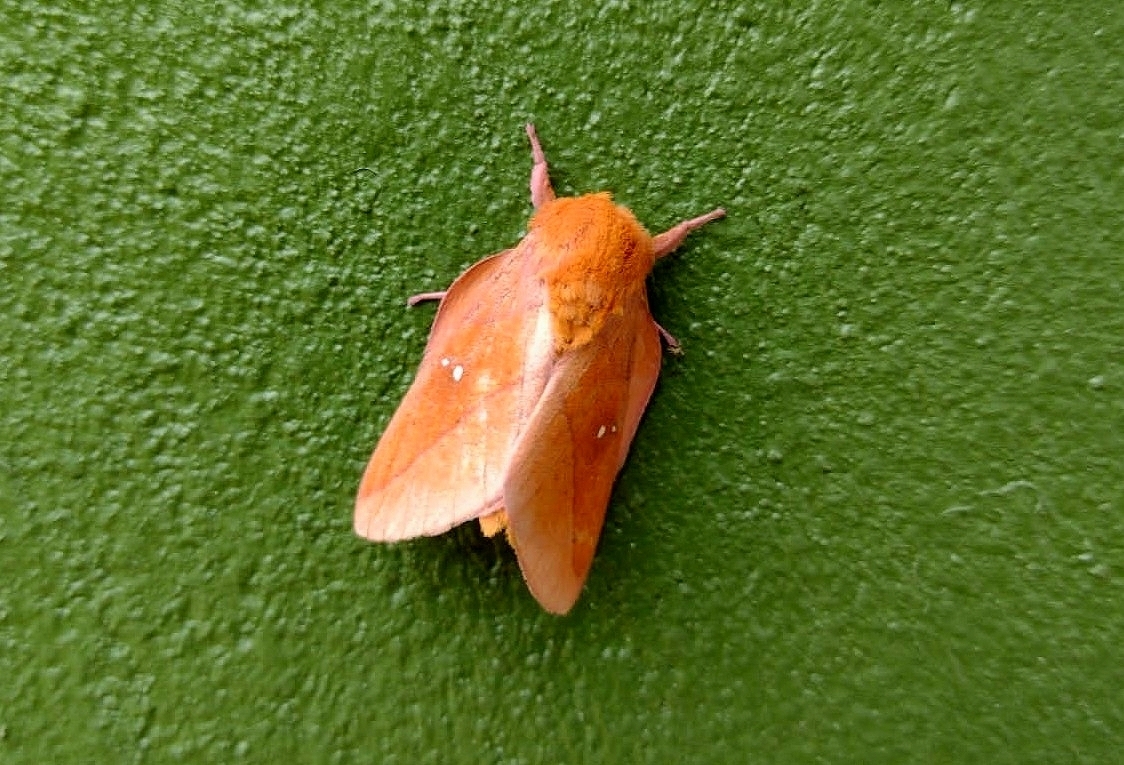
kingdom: Animalia
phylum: Arthropoda
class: Insecta
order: Lepidoptera
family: Saturniidae
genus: Syssphinx
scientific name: Syssphinx yucatana
